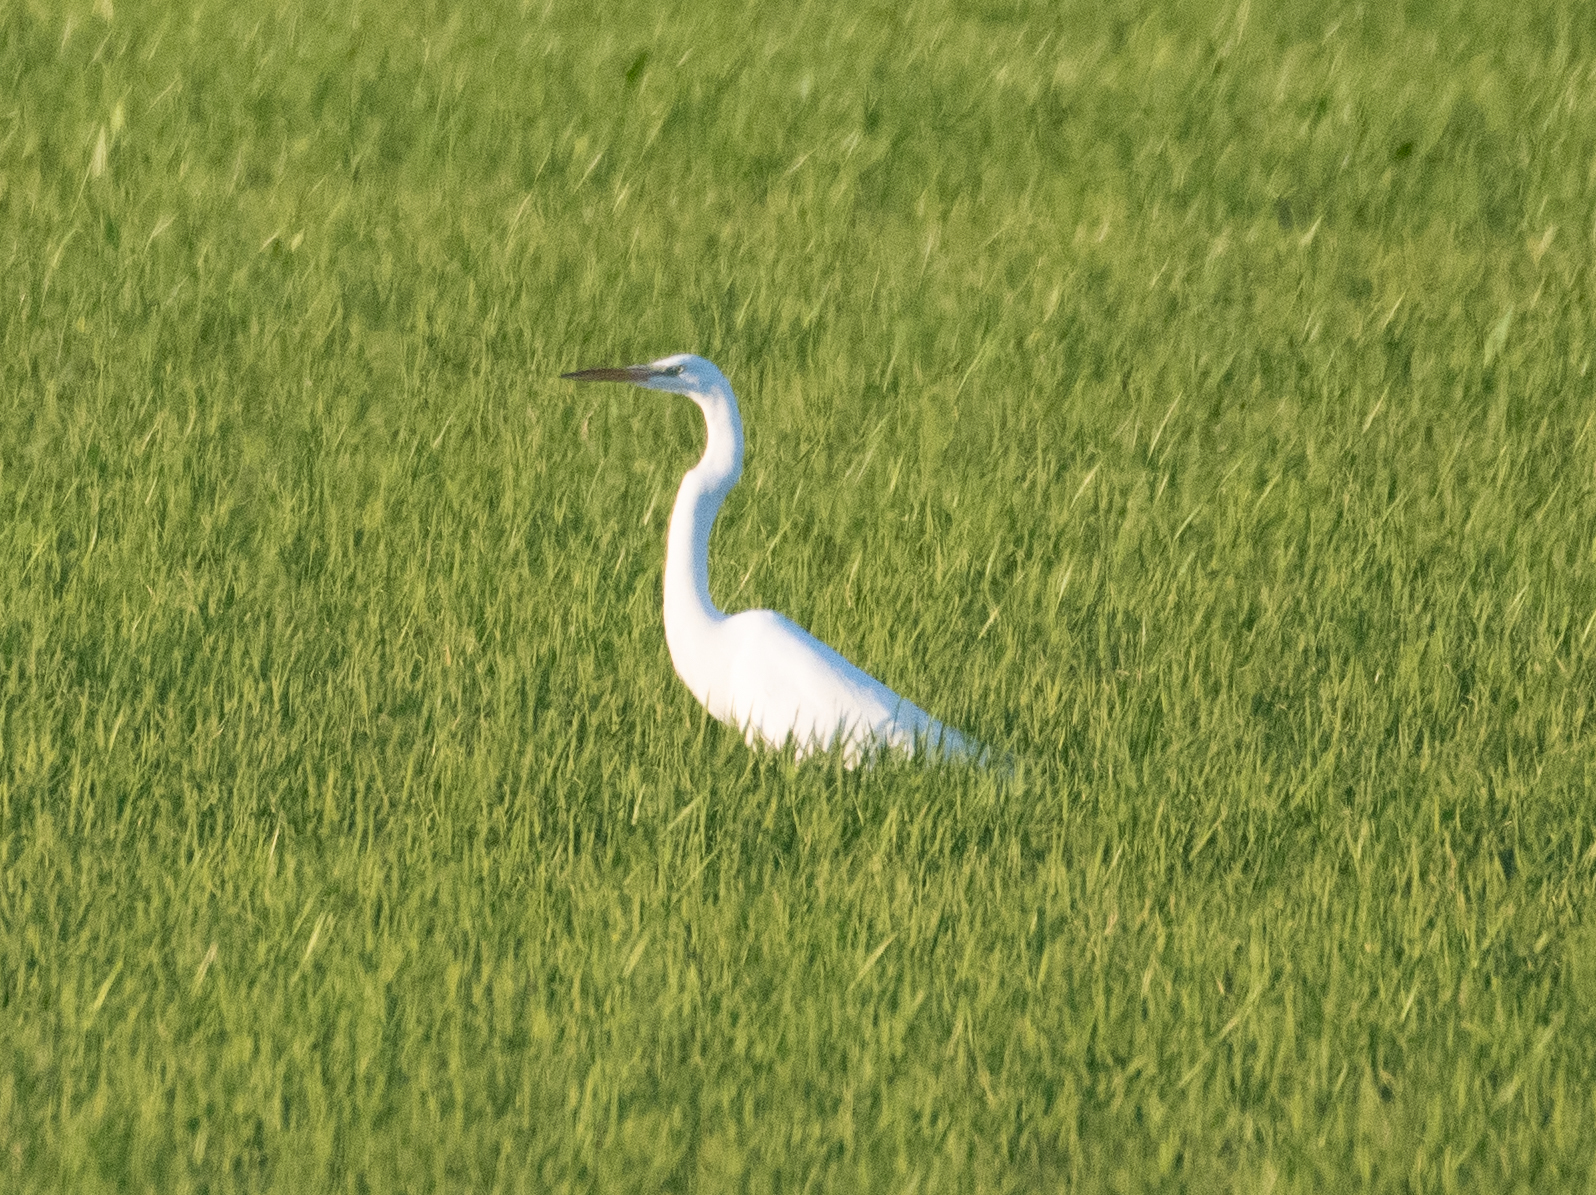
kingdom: Animalia
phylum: Chordata
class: Aves
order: Pelecaniformes
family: Ardeidae
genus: Ardea
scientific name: Ardea alba
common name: Great egret
